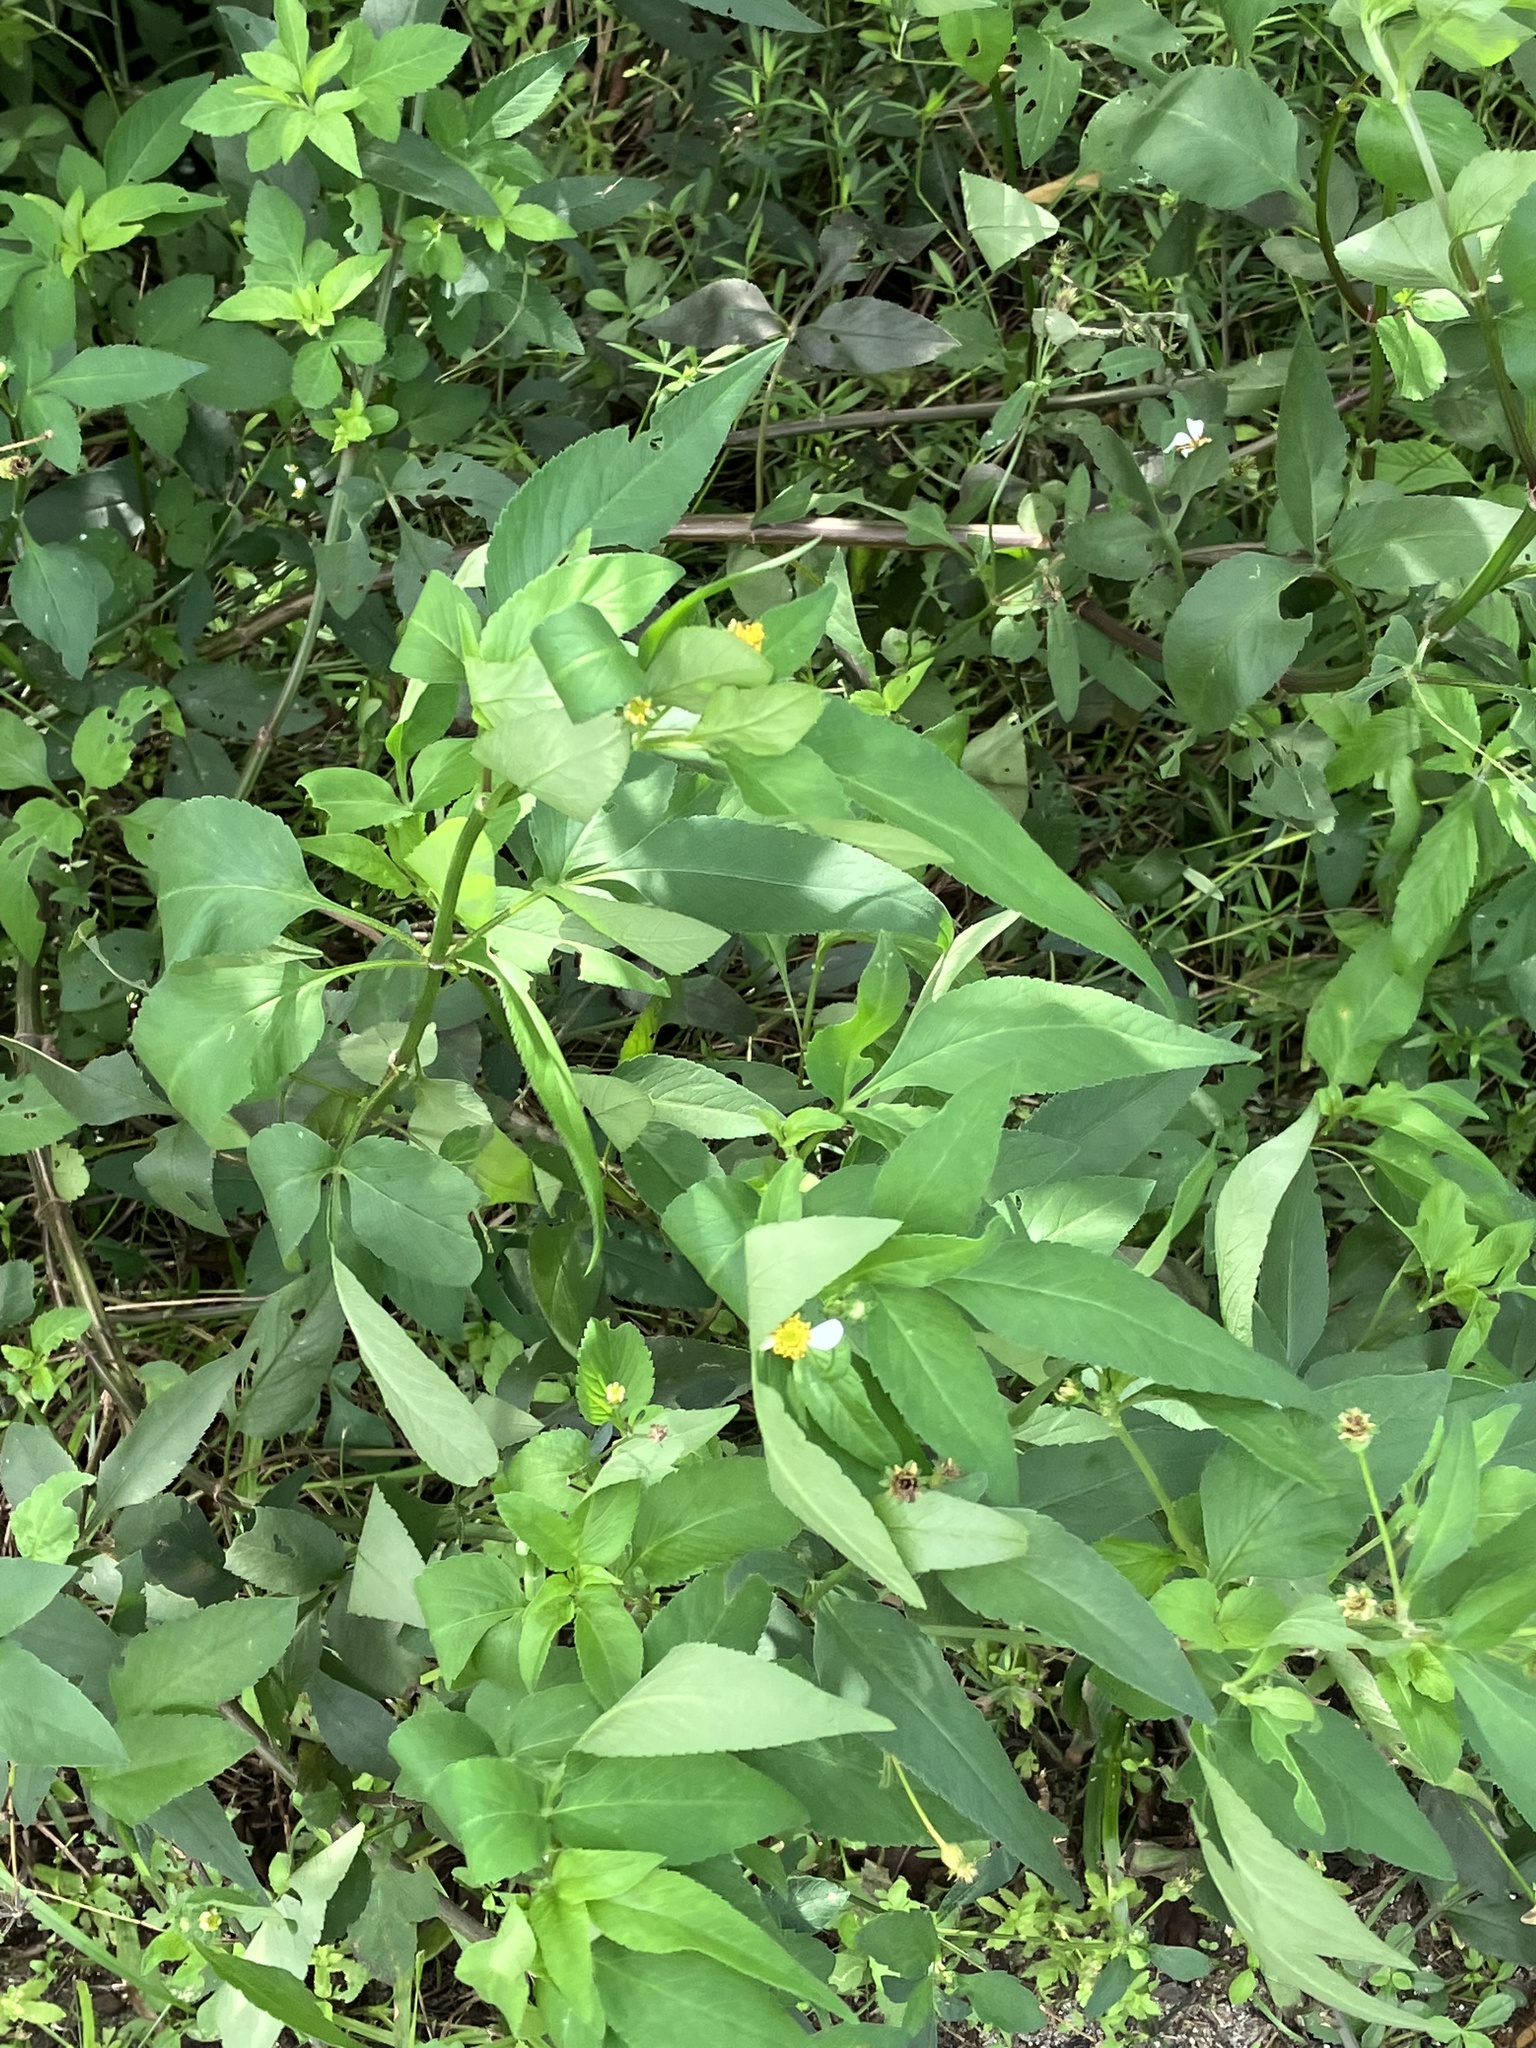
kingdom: Plantae
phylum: Tracheophyta
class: Magnoliopsida
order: Asterales
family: Asteraceae
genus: Bidens
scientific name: Bidens alba
